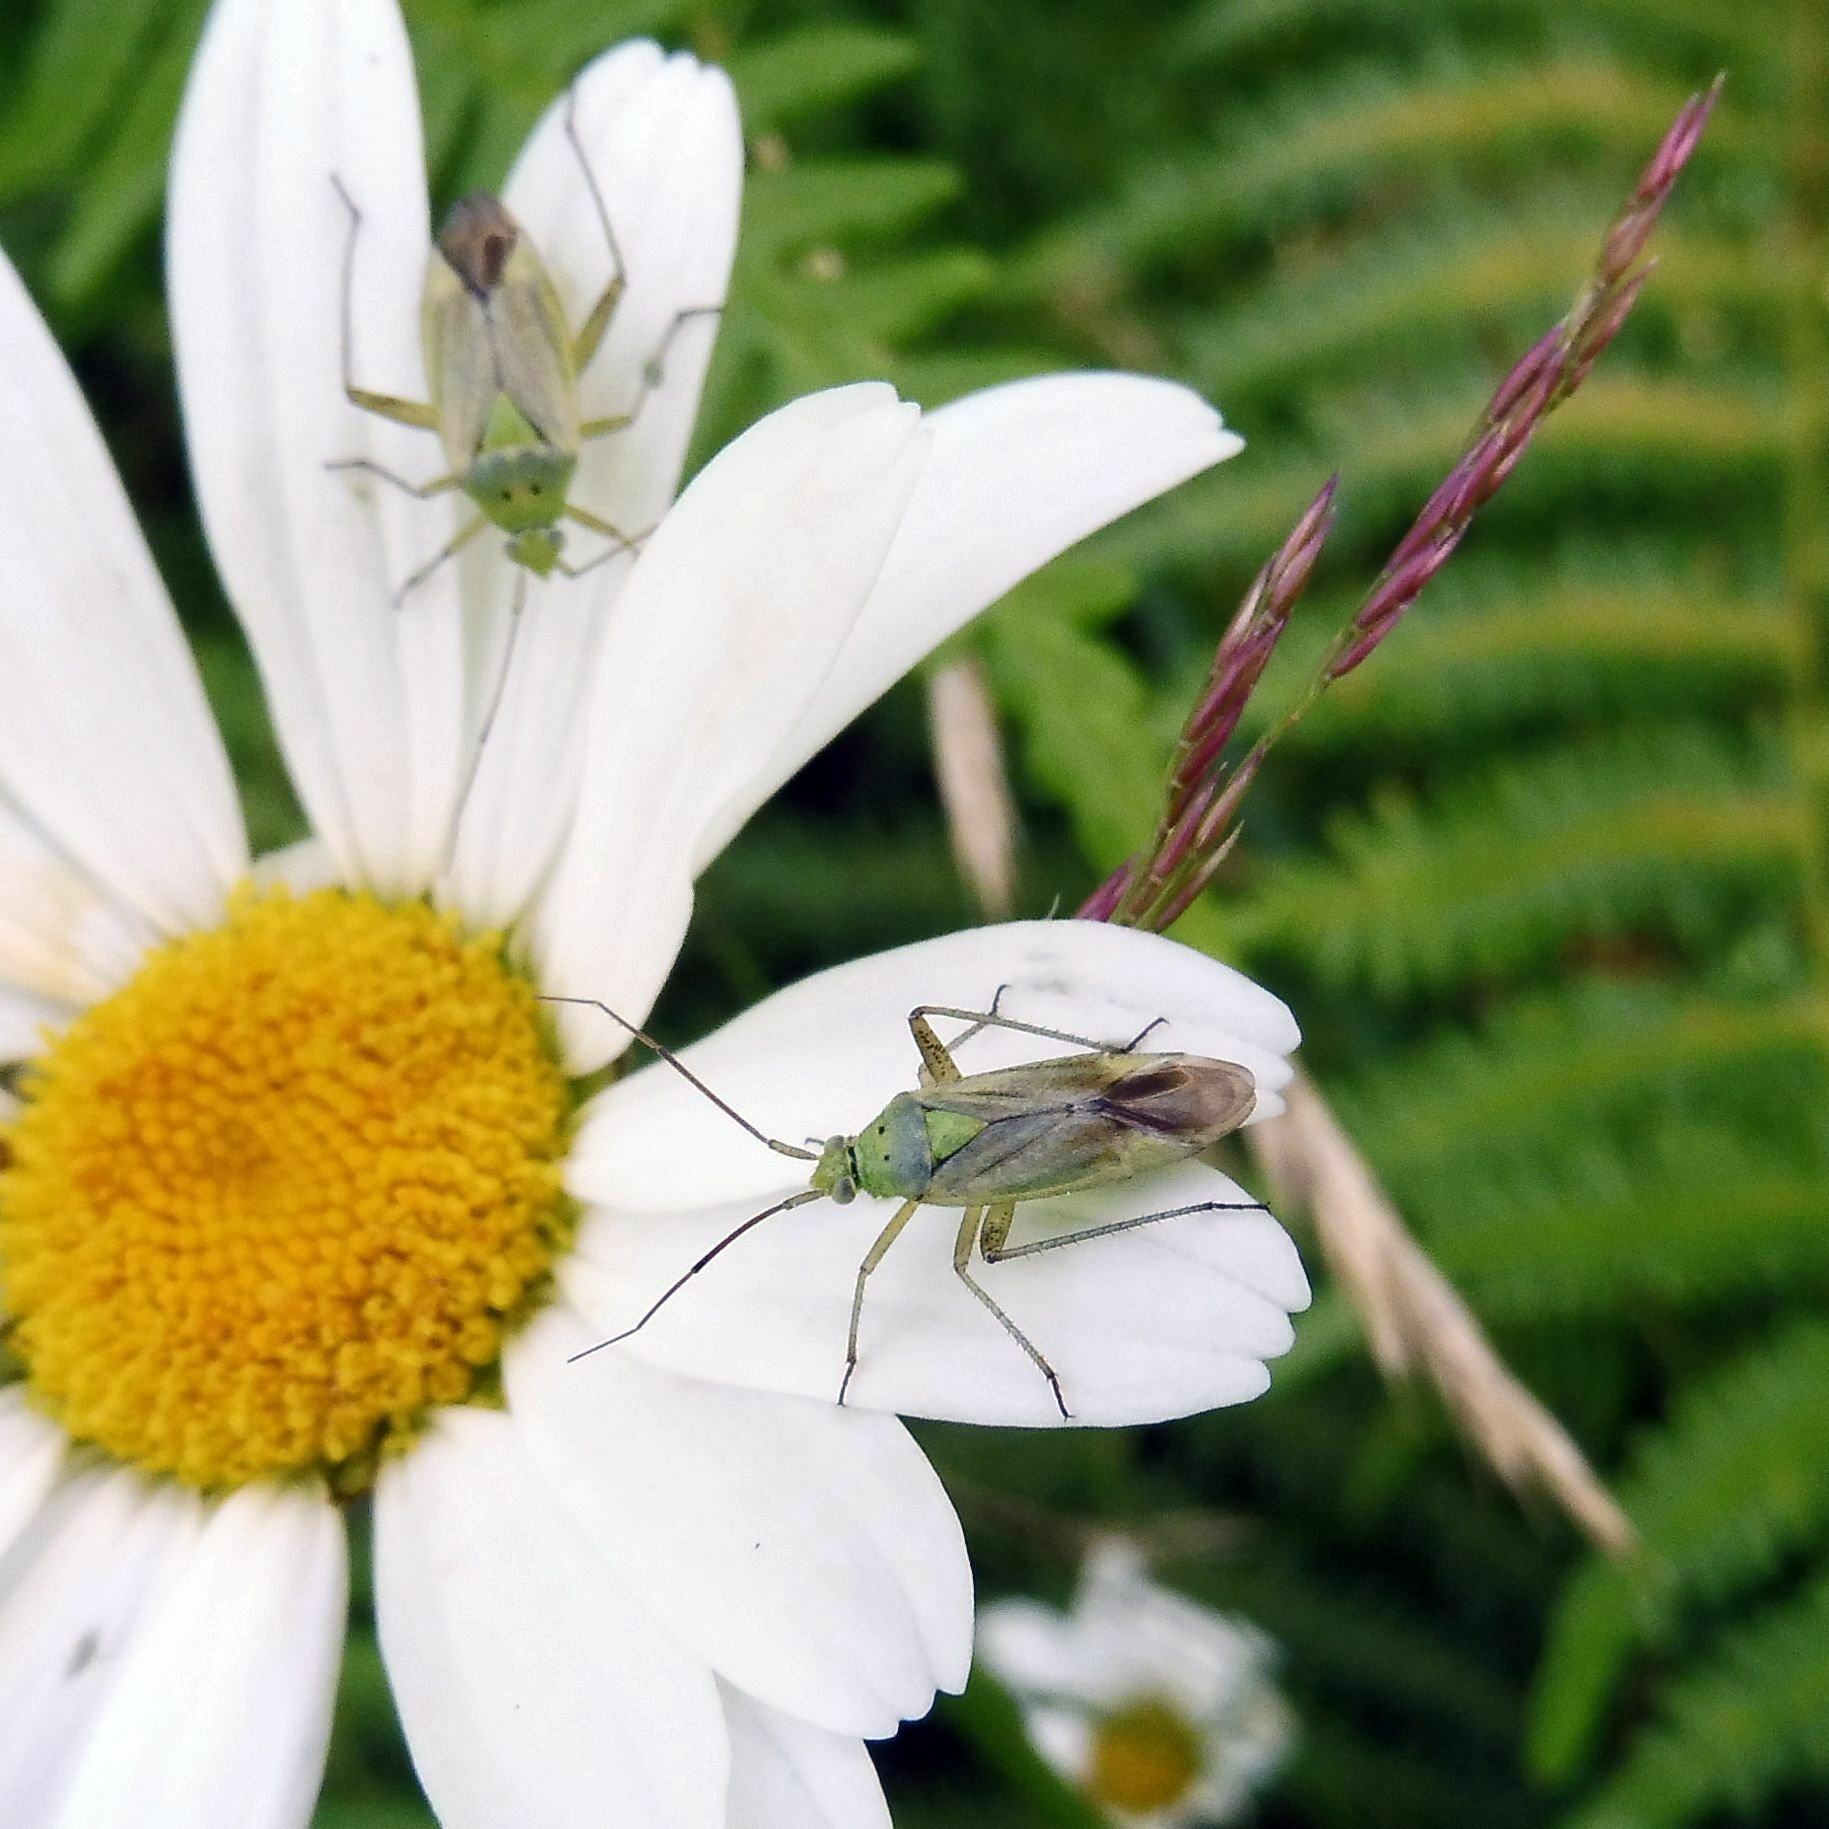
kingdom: Animalia
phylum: Arthropoda
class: Insecta
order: Hemiptera
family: Miridae
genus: Closterotomus
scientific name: Closterotomus norvegicus
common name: Plant bug
